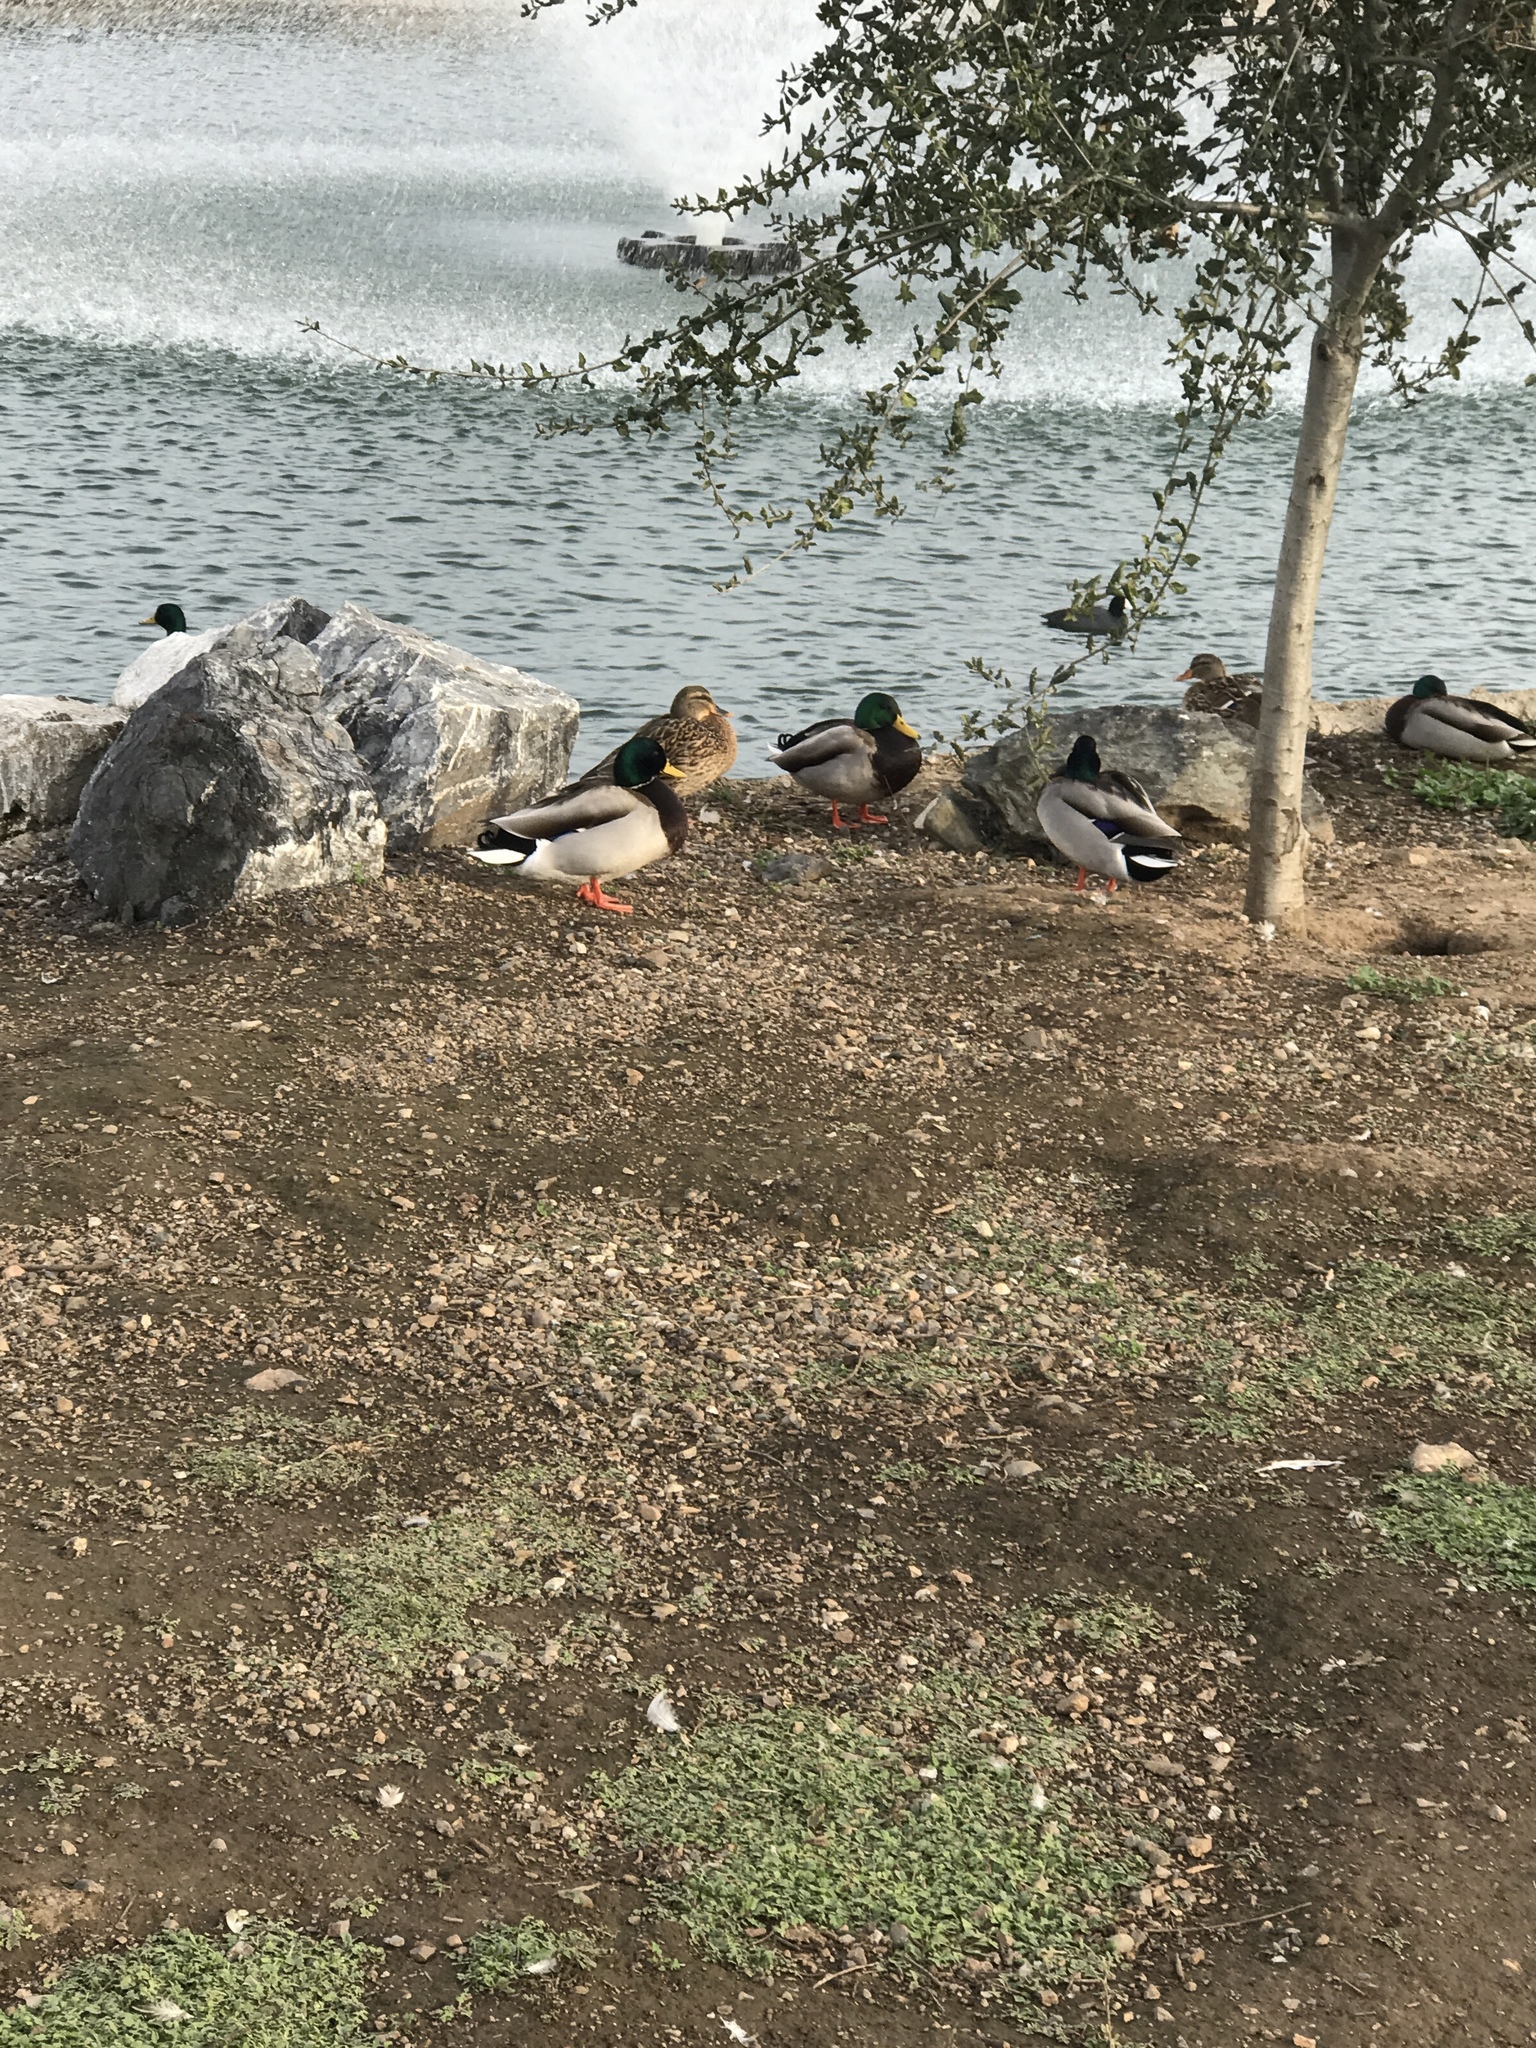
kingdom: Animalia
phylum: Chordata
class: Aves
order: Anseriformes
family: Anatidae
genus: Anas
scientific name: Anas platyrhynchos
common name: Mallard
